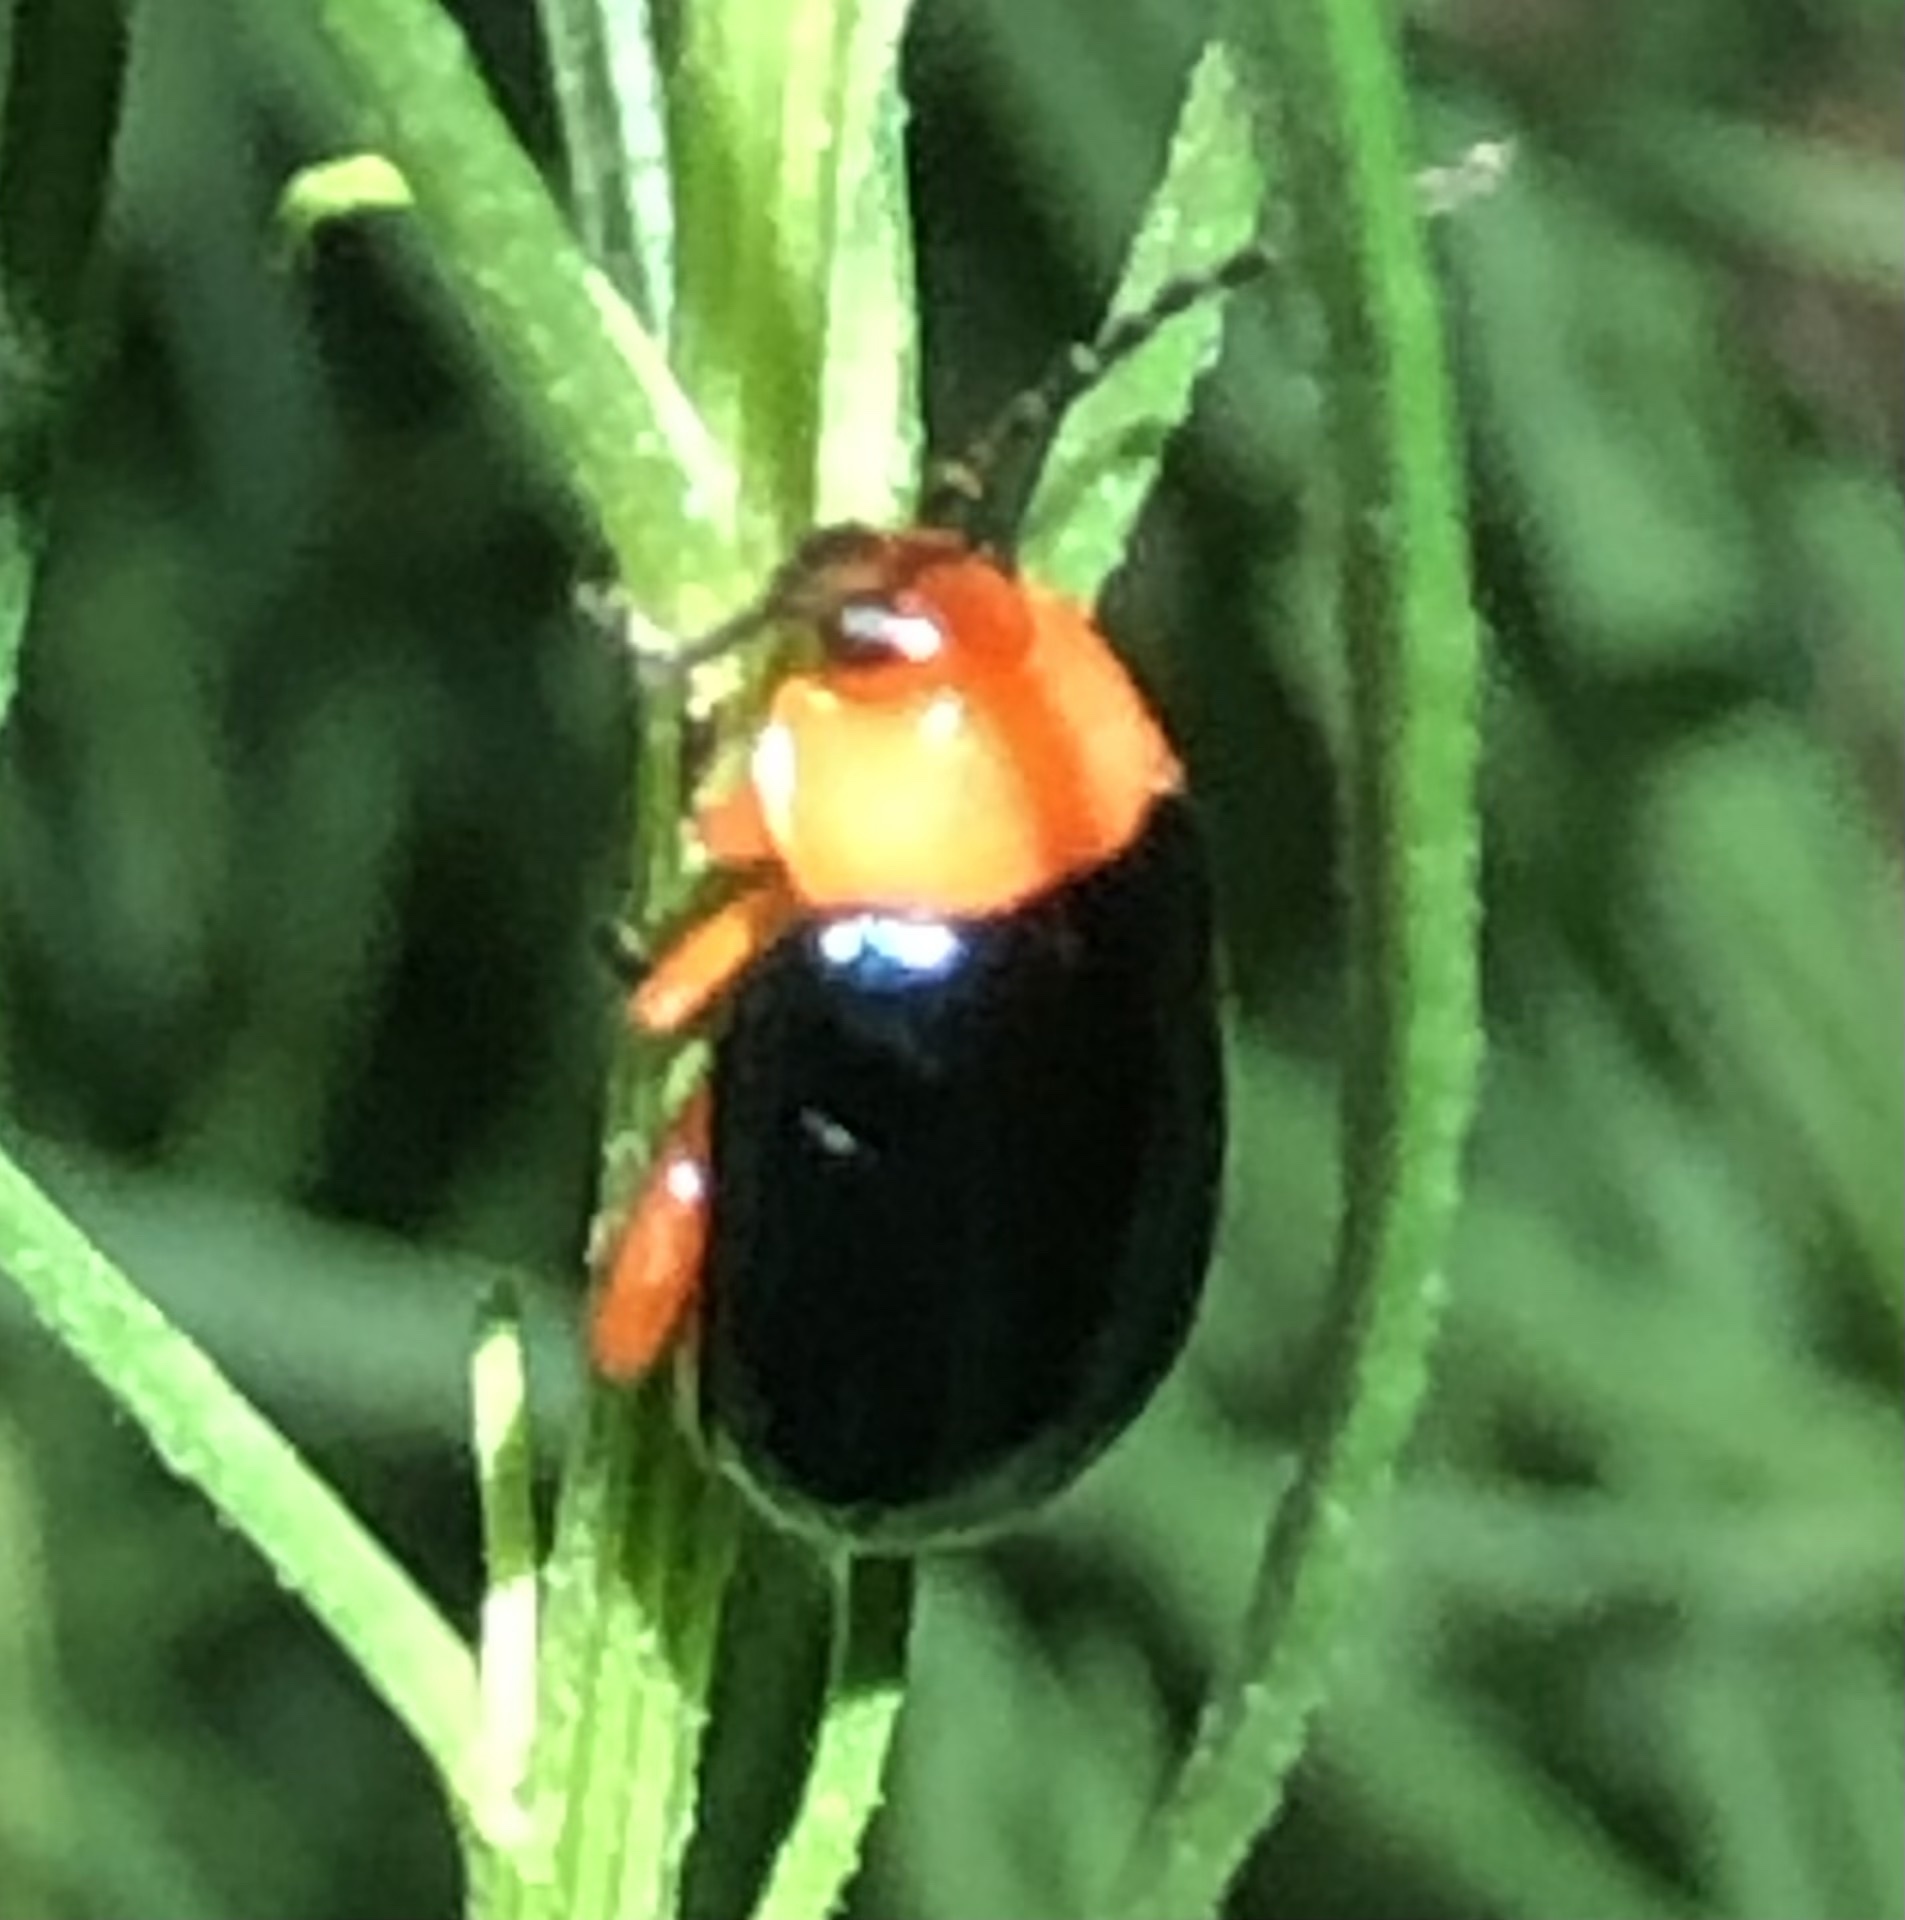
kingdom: Animalia
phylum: Arthropoda
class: Insecta
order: Coleoptera
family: Chrysomelidae
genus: Asphaera
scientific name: Asphaera lustrans
